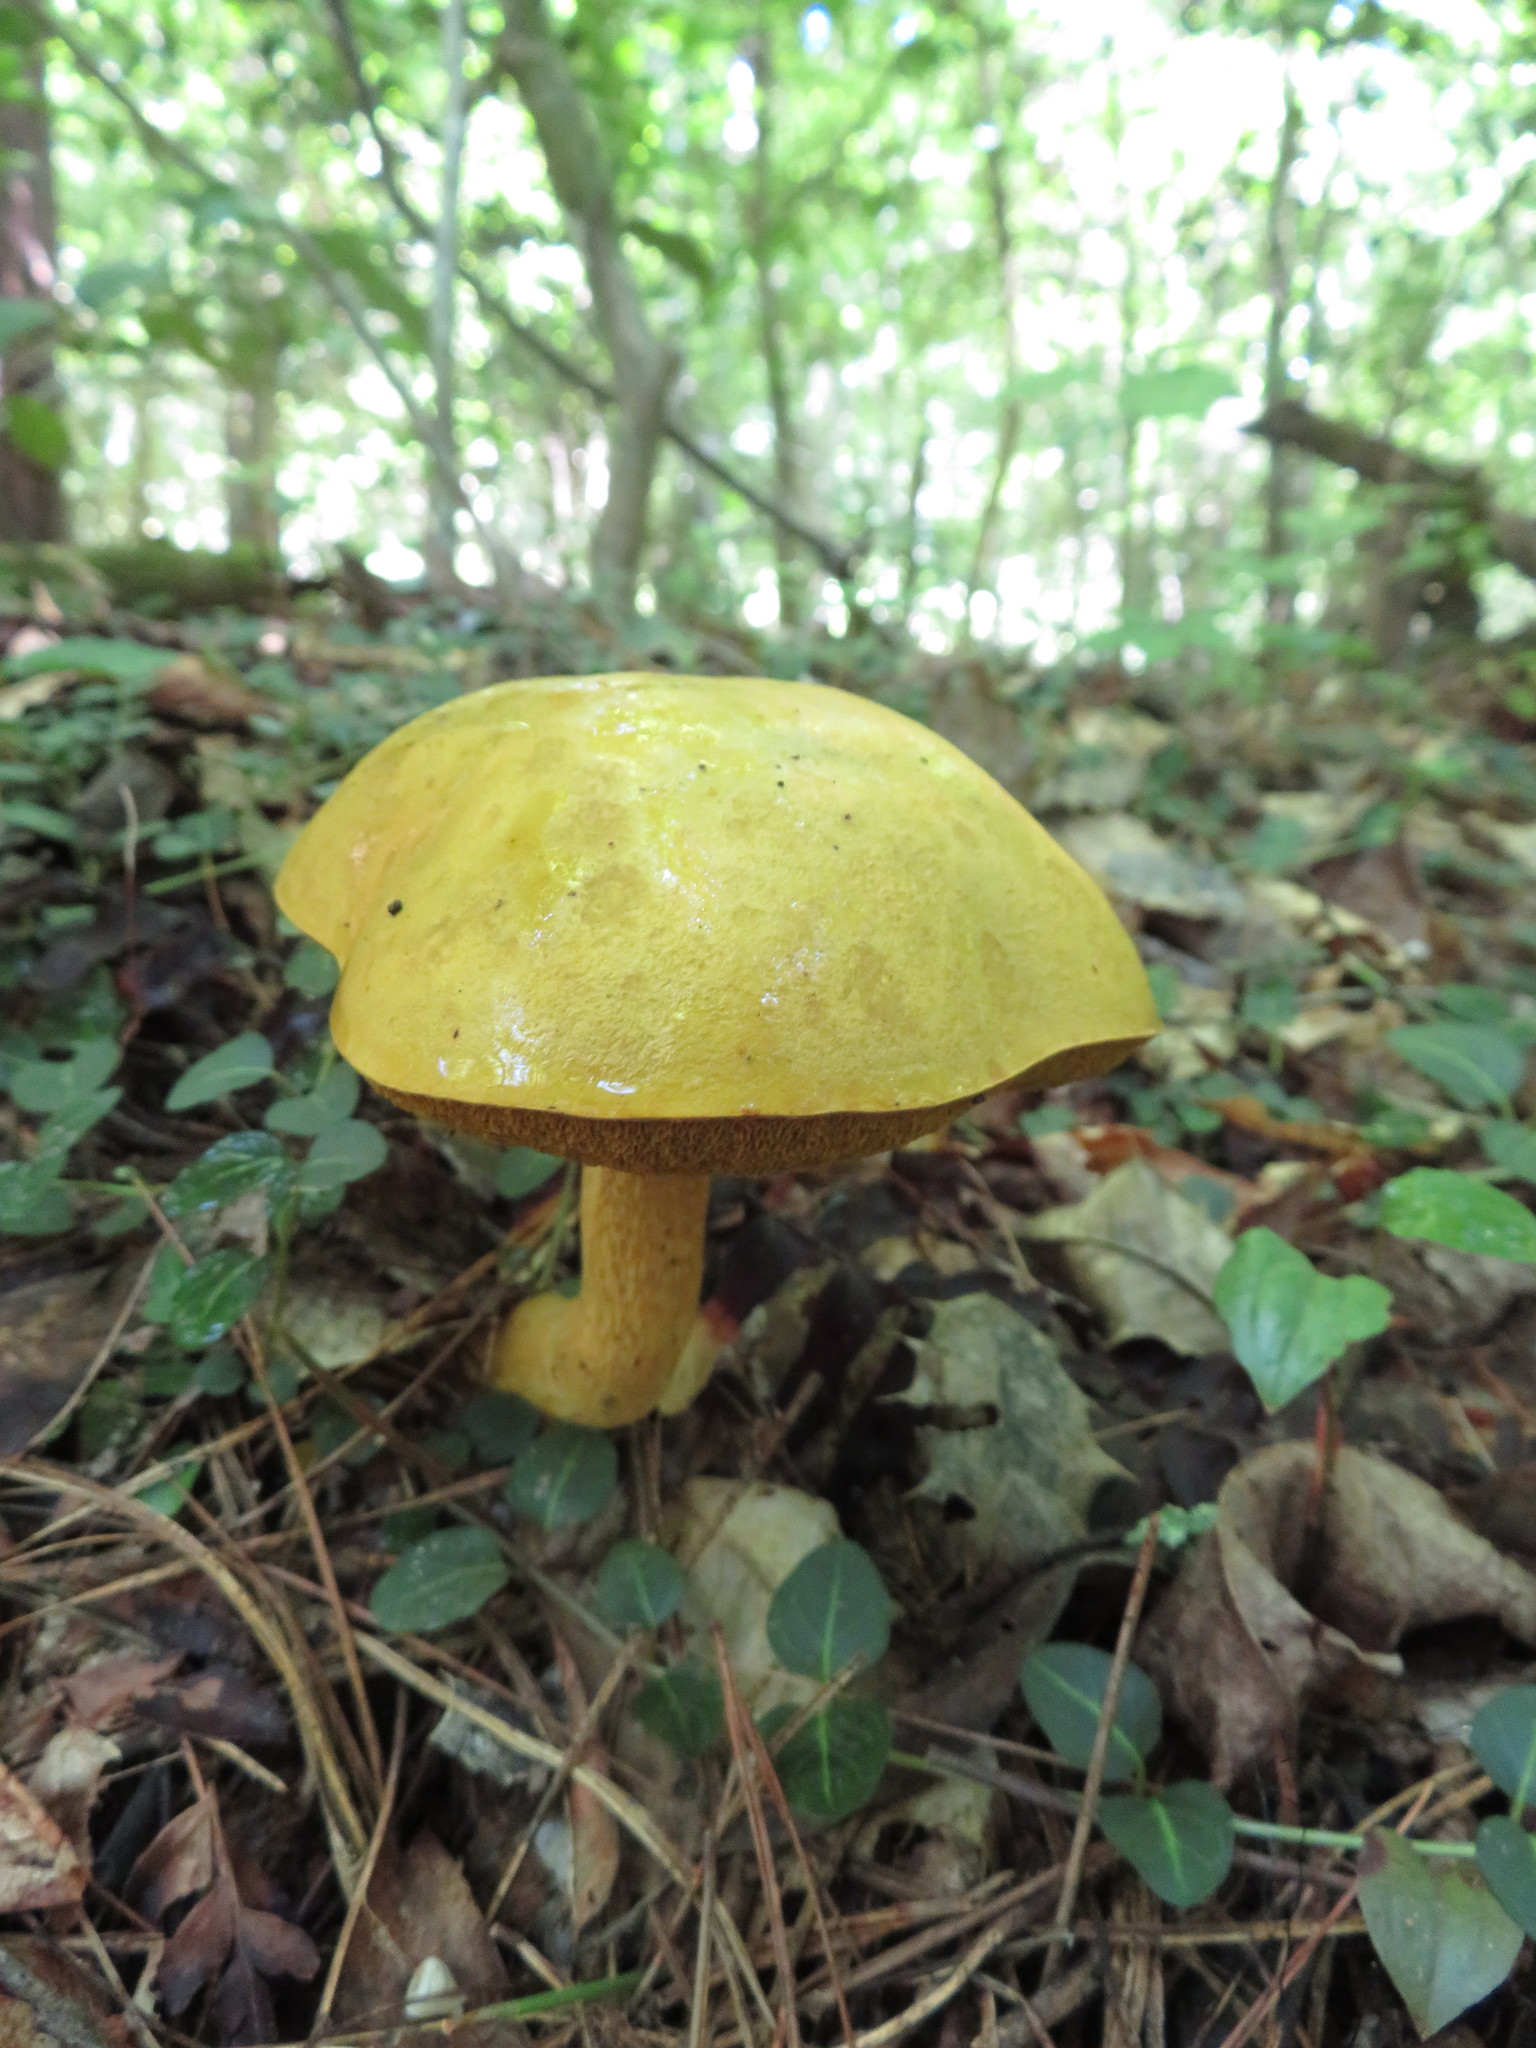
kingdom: Fungi
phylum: Basidiomycota
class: Agaricomycetes
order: Boletales
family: Boletaceae
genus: Retiboletus
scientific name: Retiboletus ornatipes
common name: Ornate-stalked bolete
